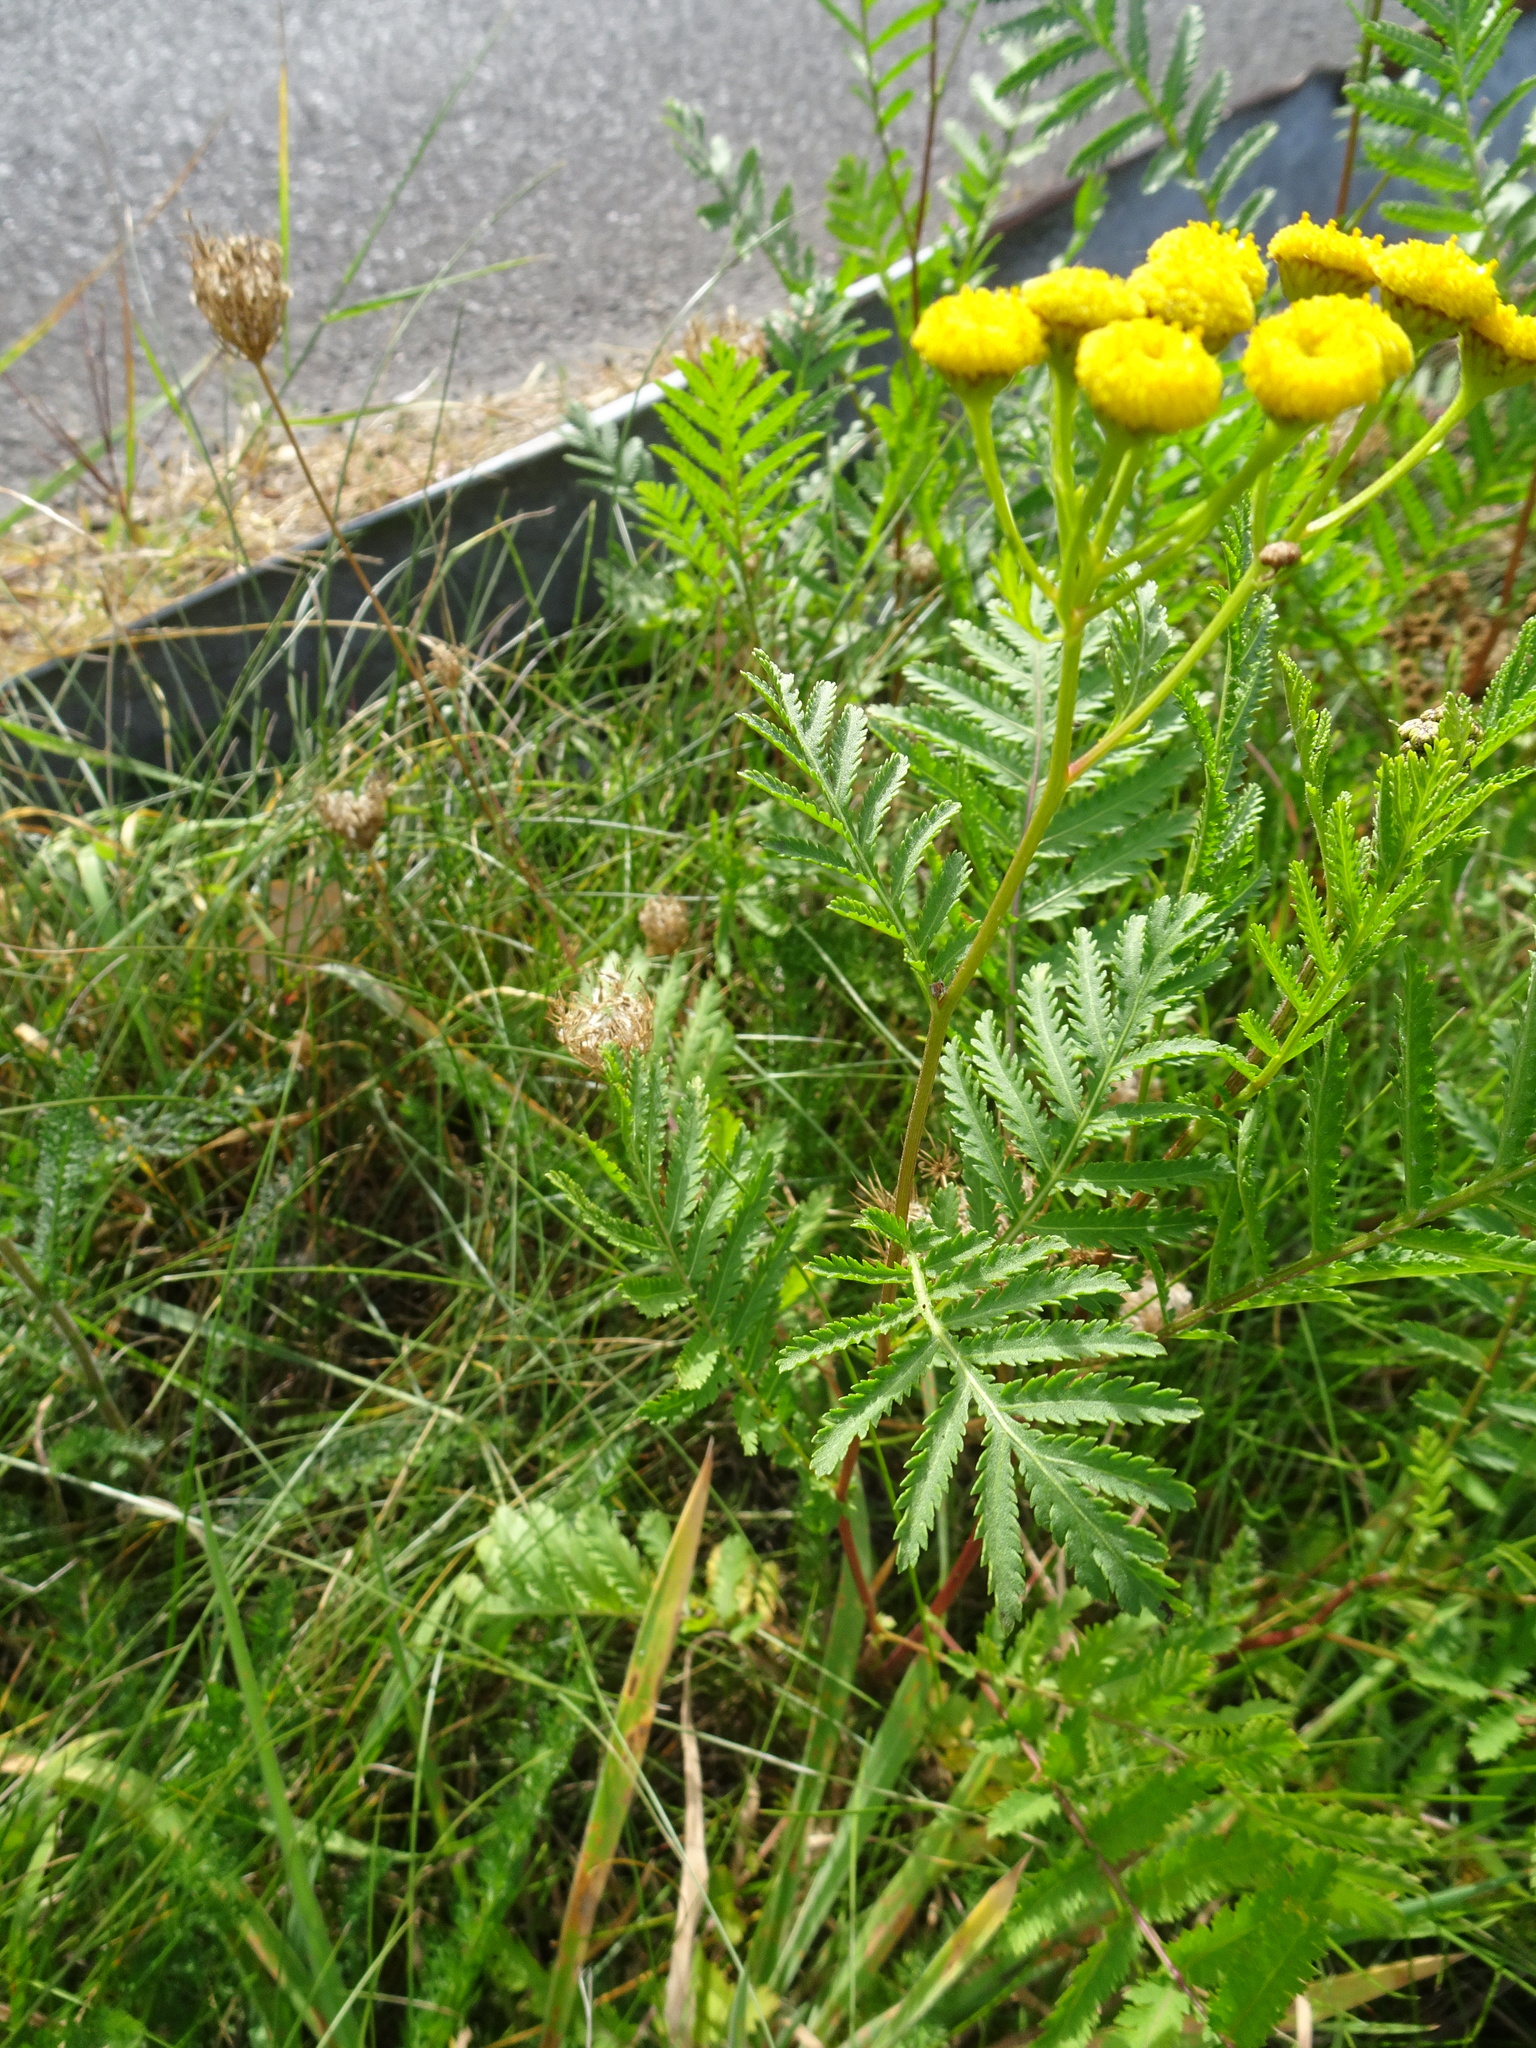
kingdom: Plantae
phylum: Tracheophyta
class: Magnoliopsida
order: Asterales
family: Asteraceae
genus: Tanacetum
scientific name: Tanacetum vulgare
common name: Common tansy
